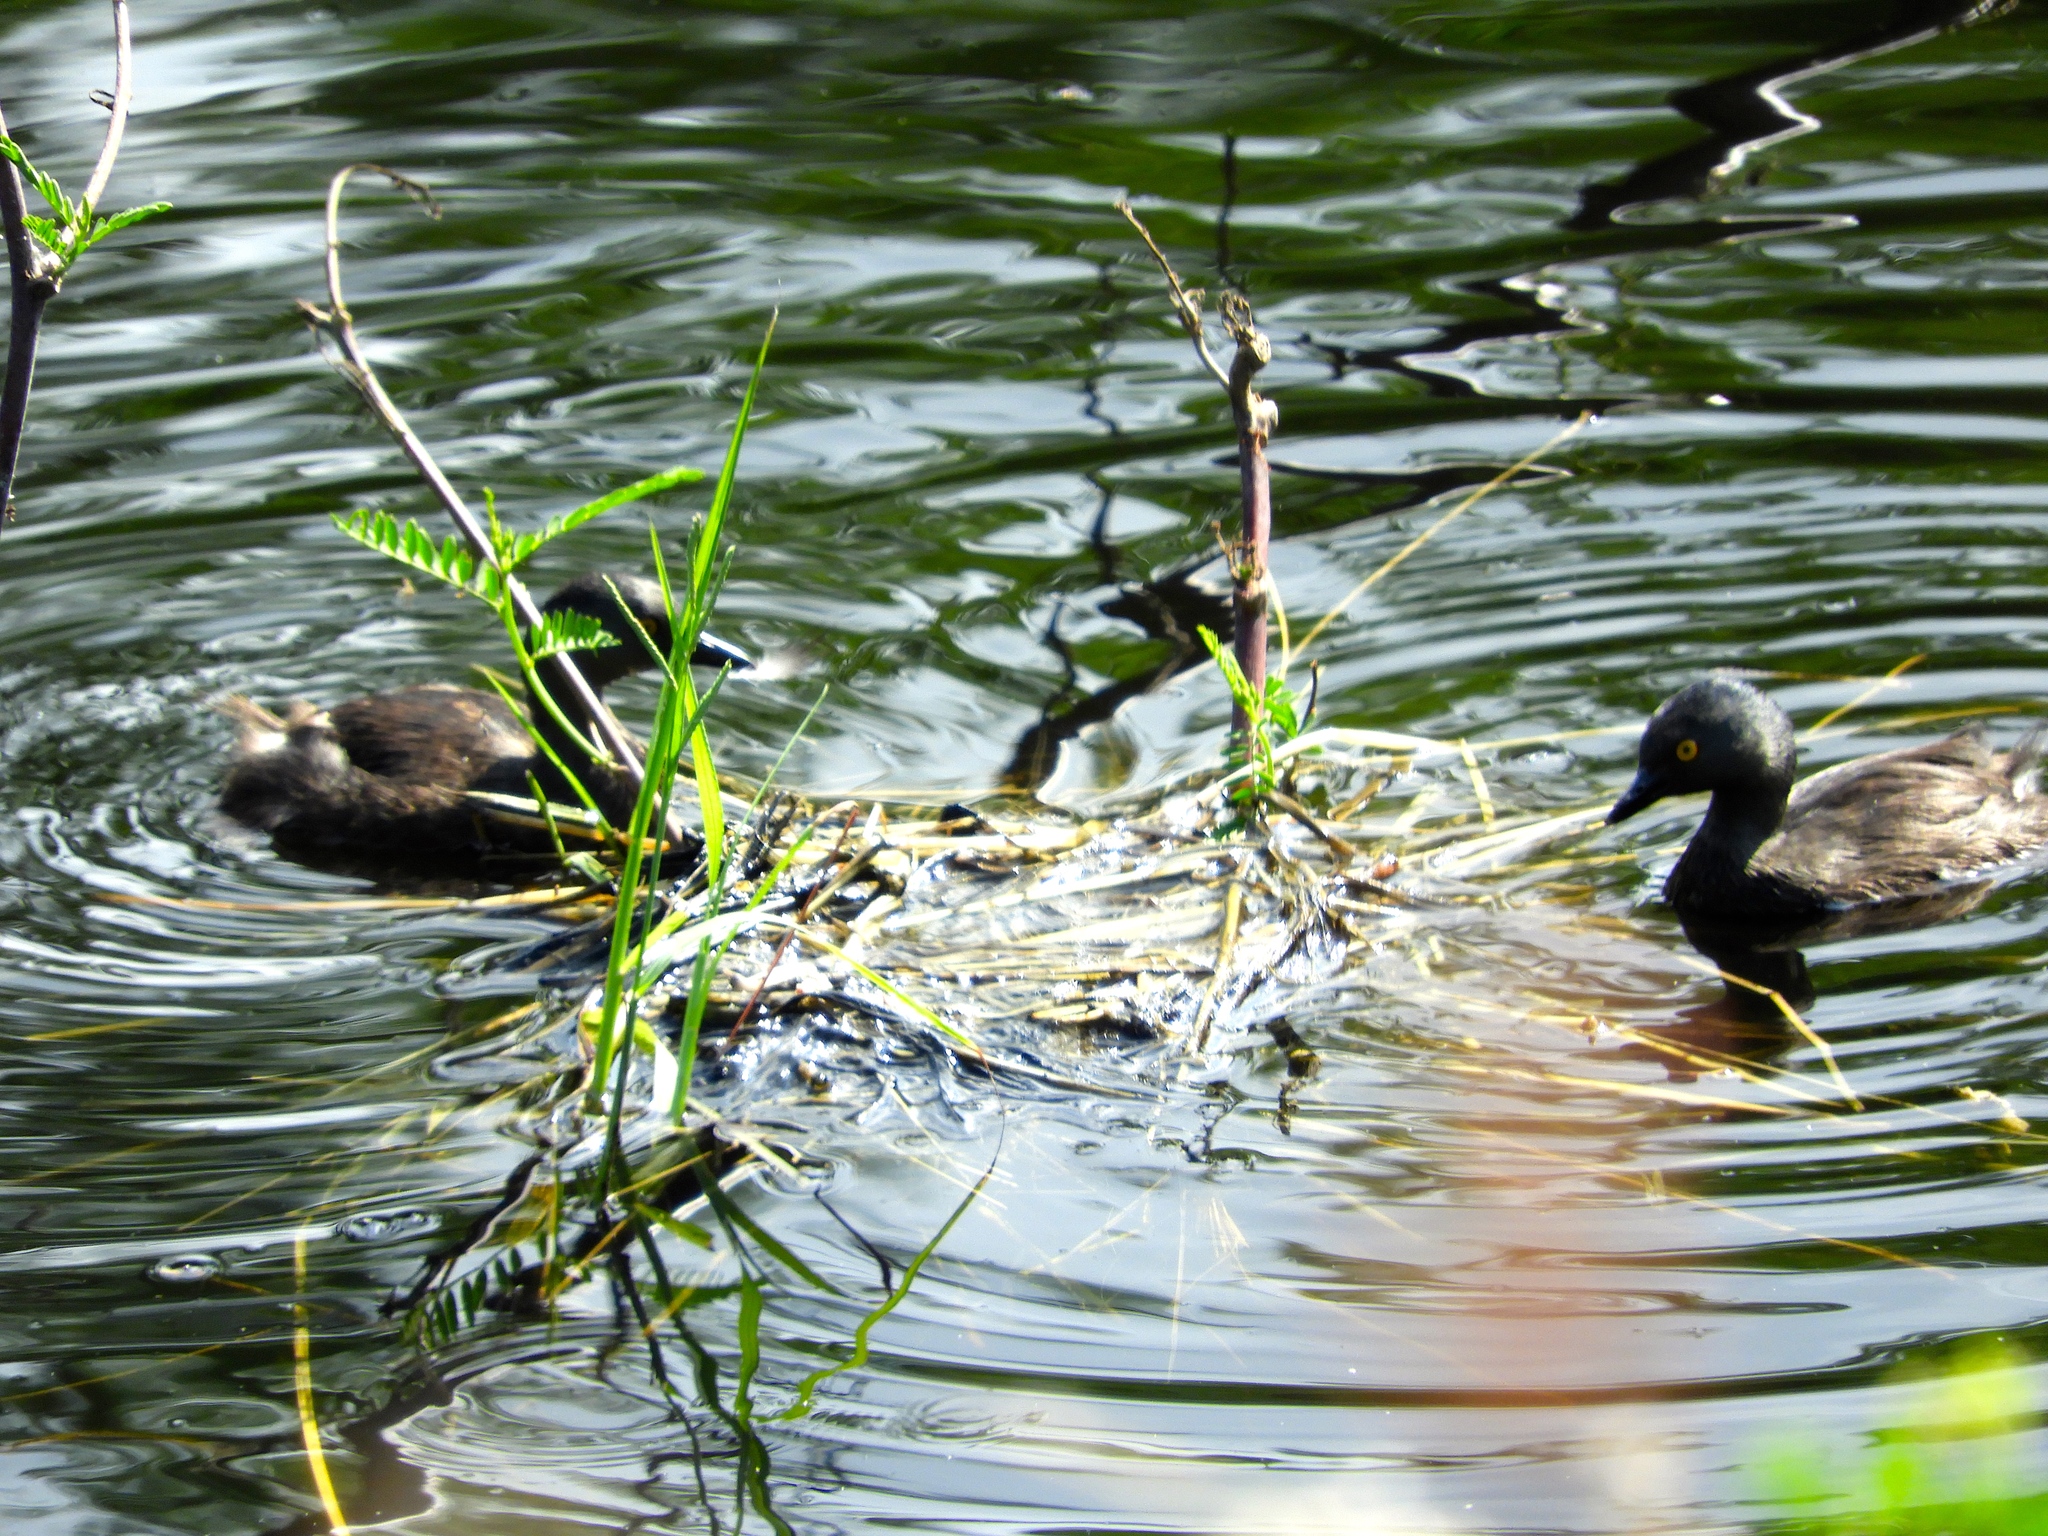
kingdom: Animalia
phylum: Chordata
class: Aves
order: Podicipediformes
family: Podicipedidae
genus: Tachybaptus
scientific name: Tachybaptus dominicus
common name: Least grebe
